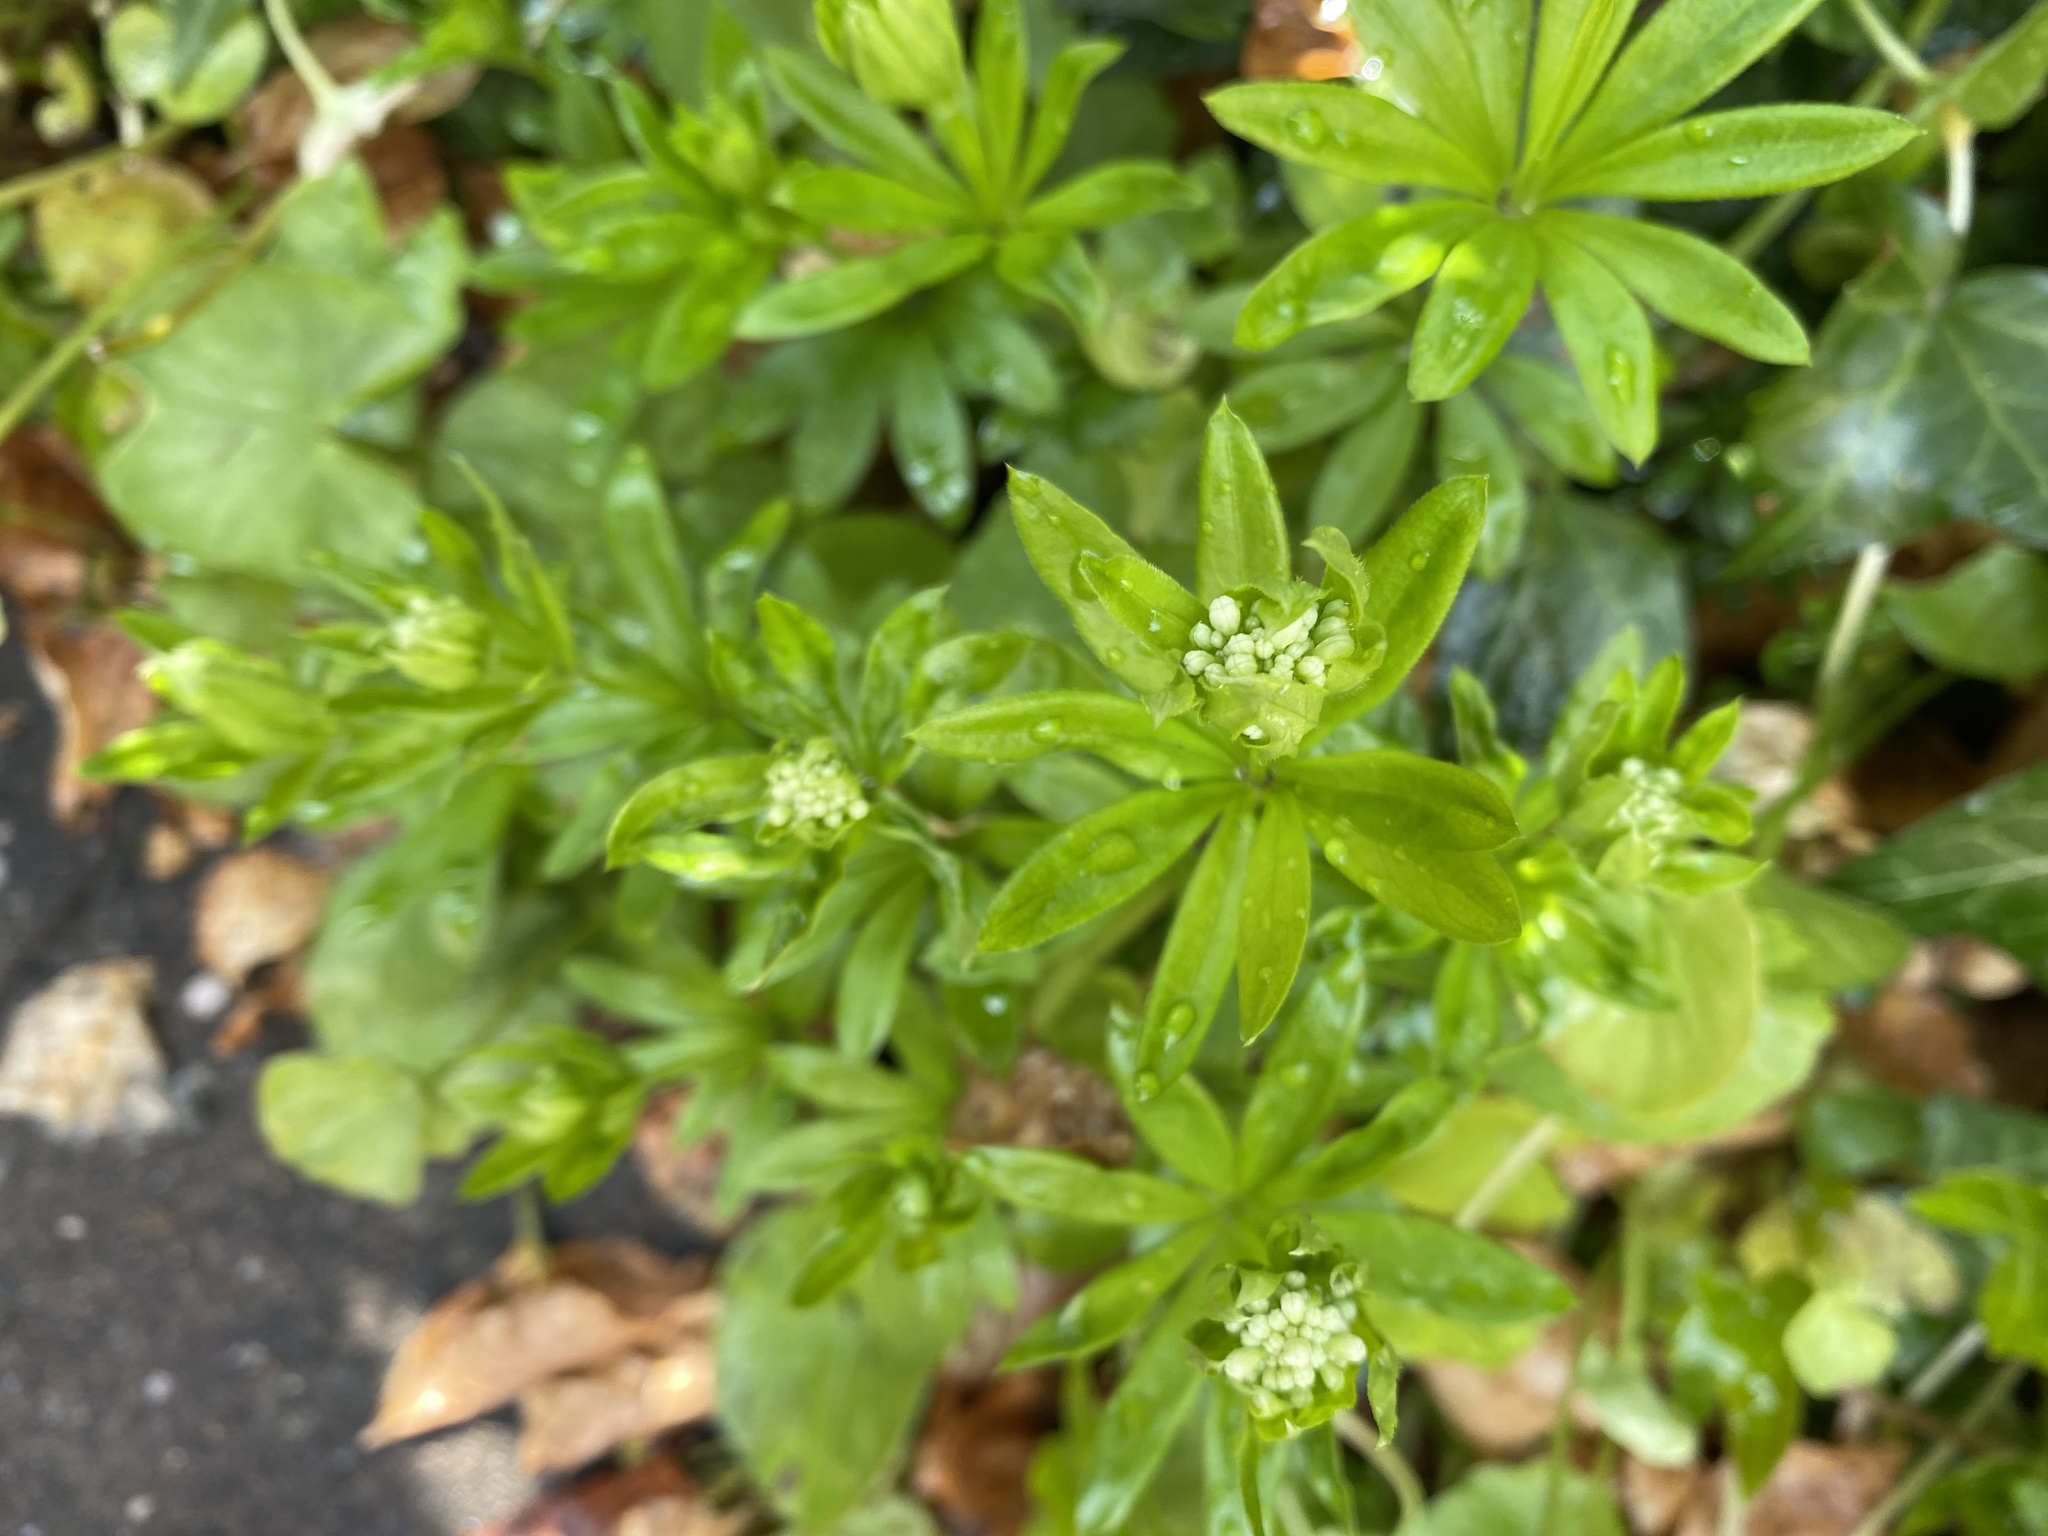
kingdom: Plantae
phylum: Tracheophyta
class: Magnoliopsida
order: Gentianales
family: Rubiaceae
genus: Galium
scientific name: Galium odoratum
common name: Sweet woodruff
